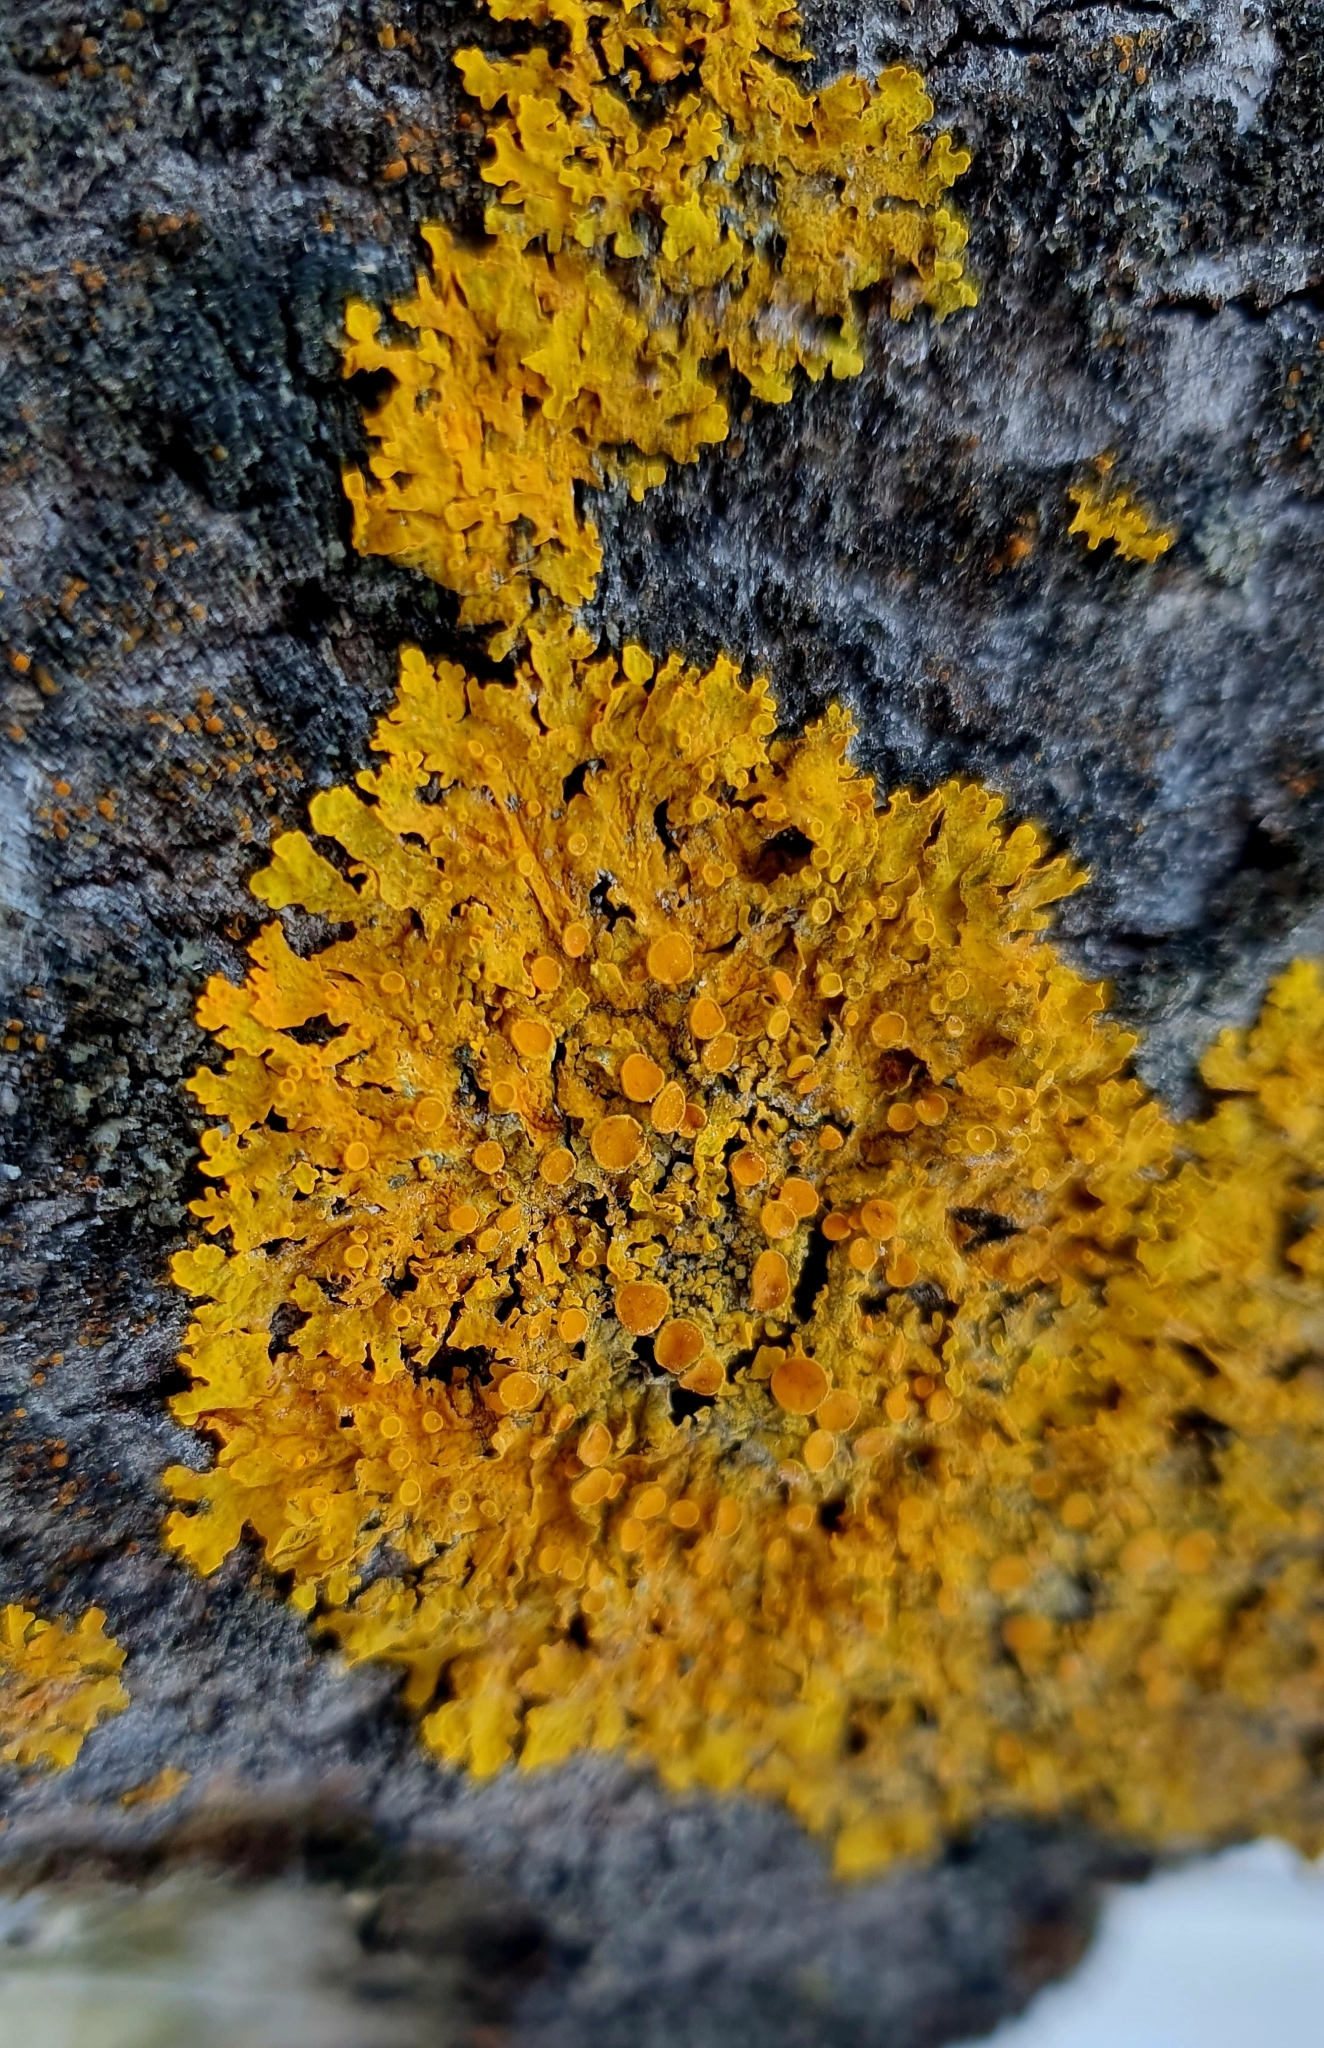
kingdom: Fungi
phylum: Ascomycota
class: Lecanoromycetes
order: Teloschistales
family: Teloschistaceae
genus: Xanthoria
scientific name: Xanthoria parietina
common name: Common orange lichen
